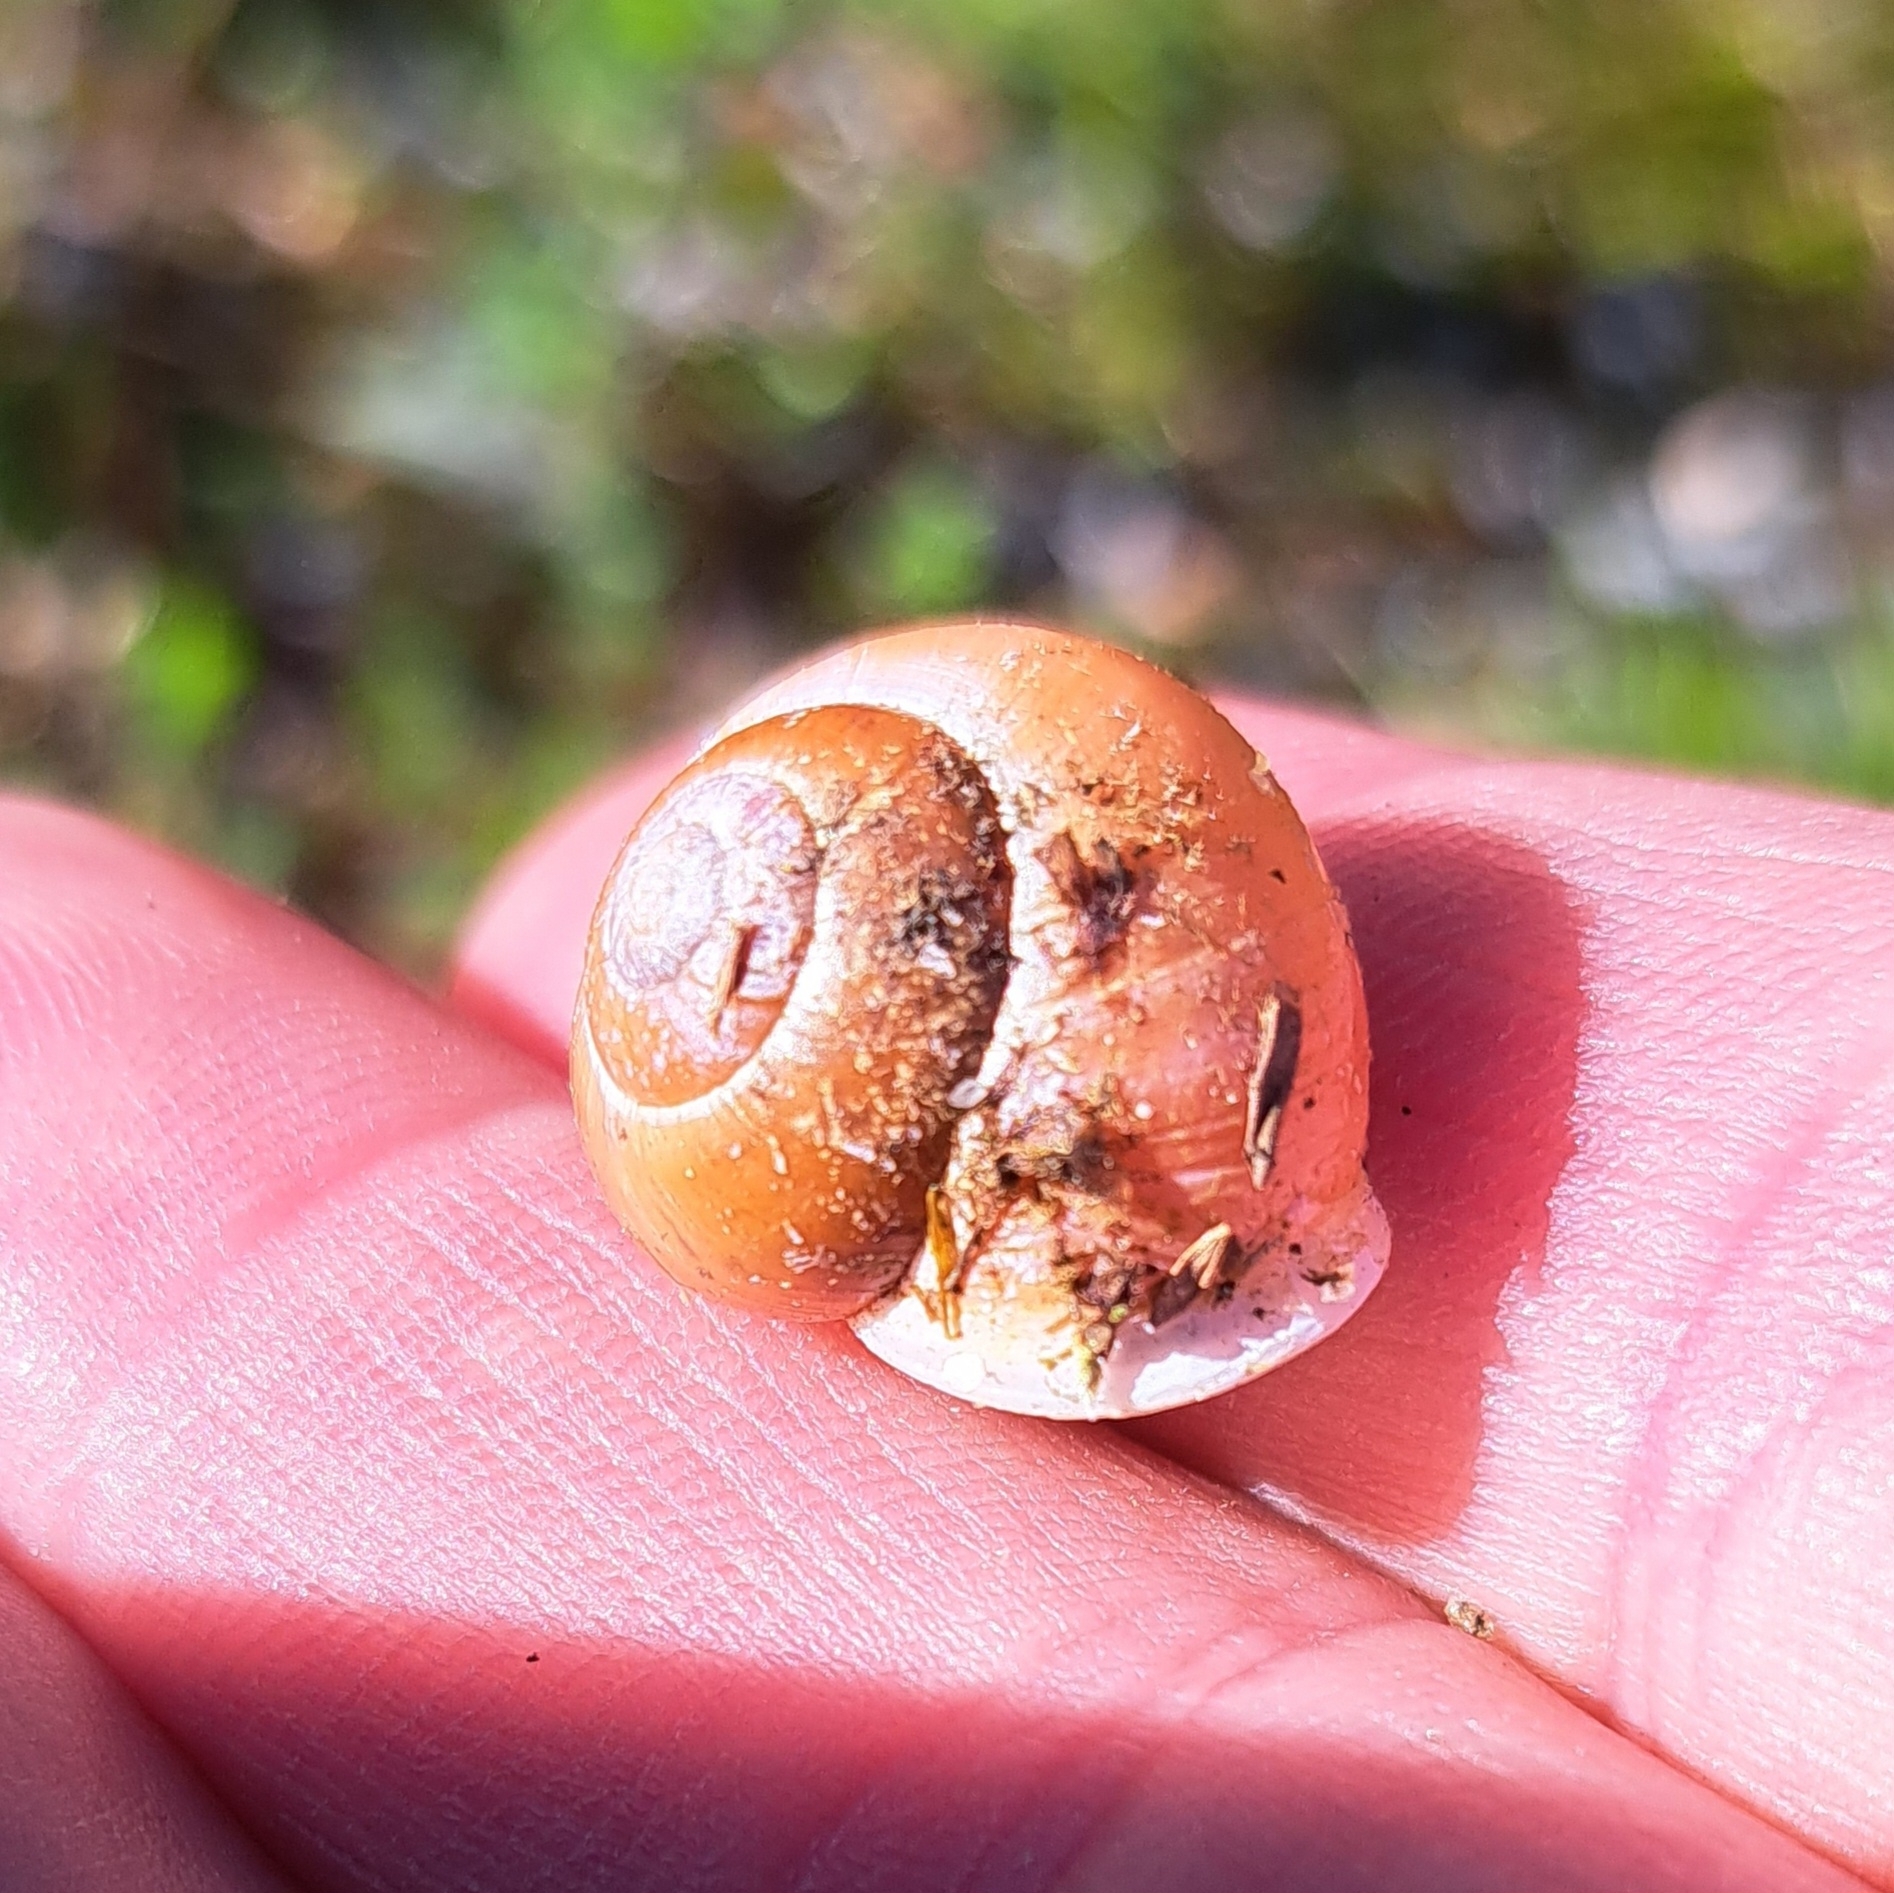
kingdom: Animalia
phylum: Mollusca
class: Gastropoda
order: Stylommatophora
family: Helicidae
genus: Cepaea
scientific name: Cepaea hortensis
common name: White-lip gardensnail
